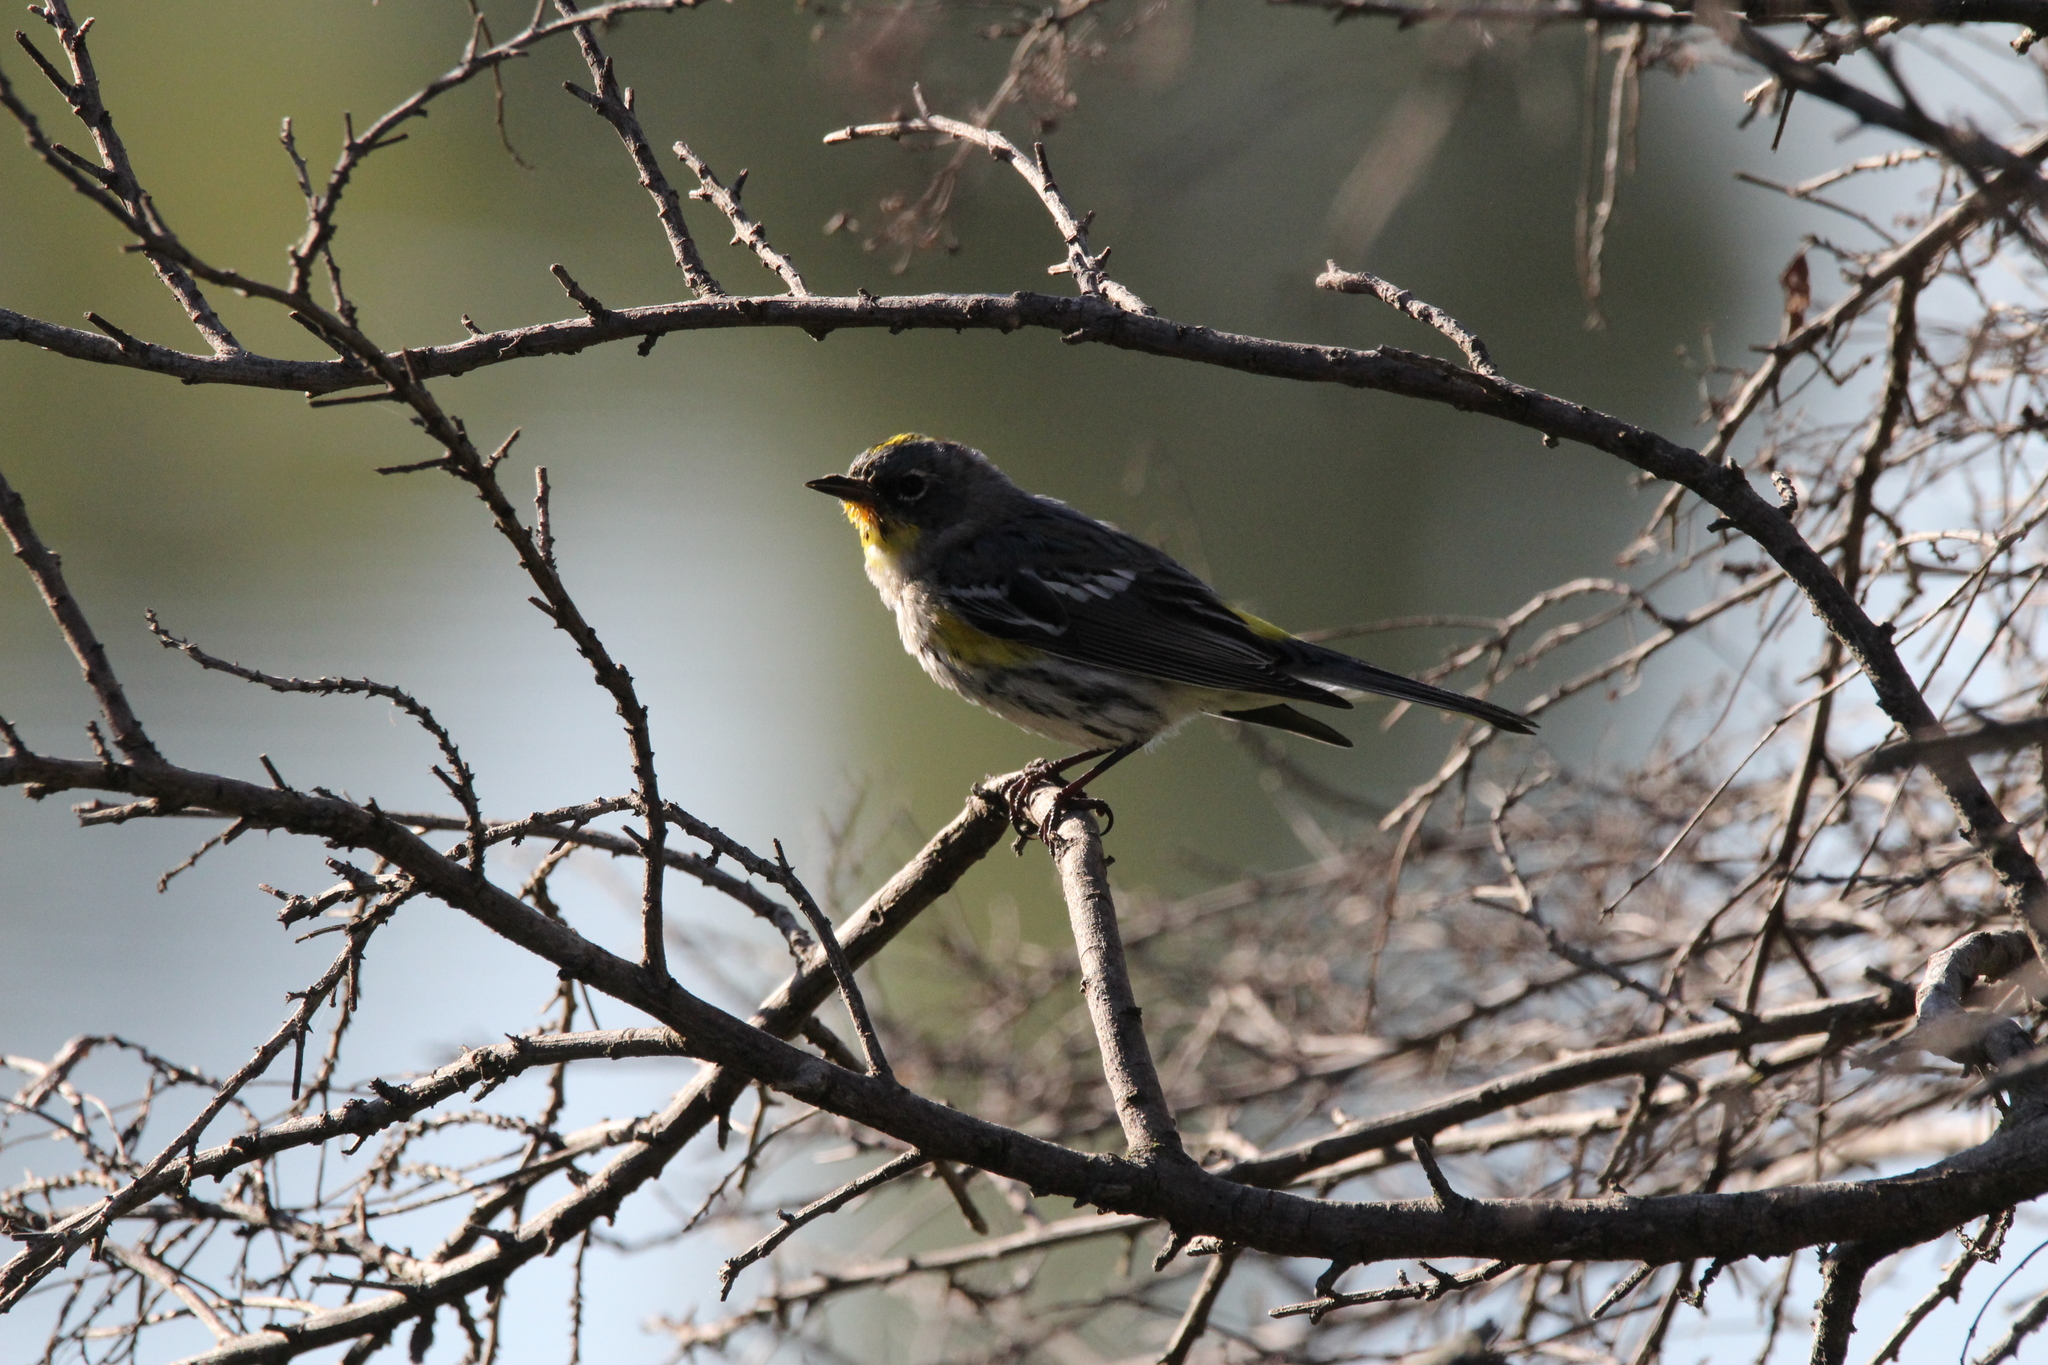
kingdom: Animalia
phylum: Chordata
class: Aves
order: Passeriformes
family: Parulidae
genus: Setophaga
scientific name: Setophaga coronata
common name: Myrtle warbler
